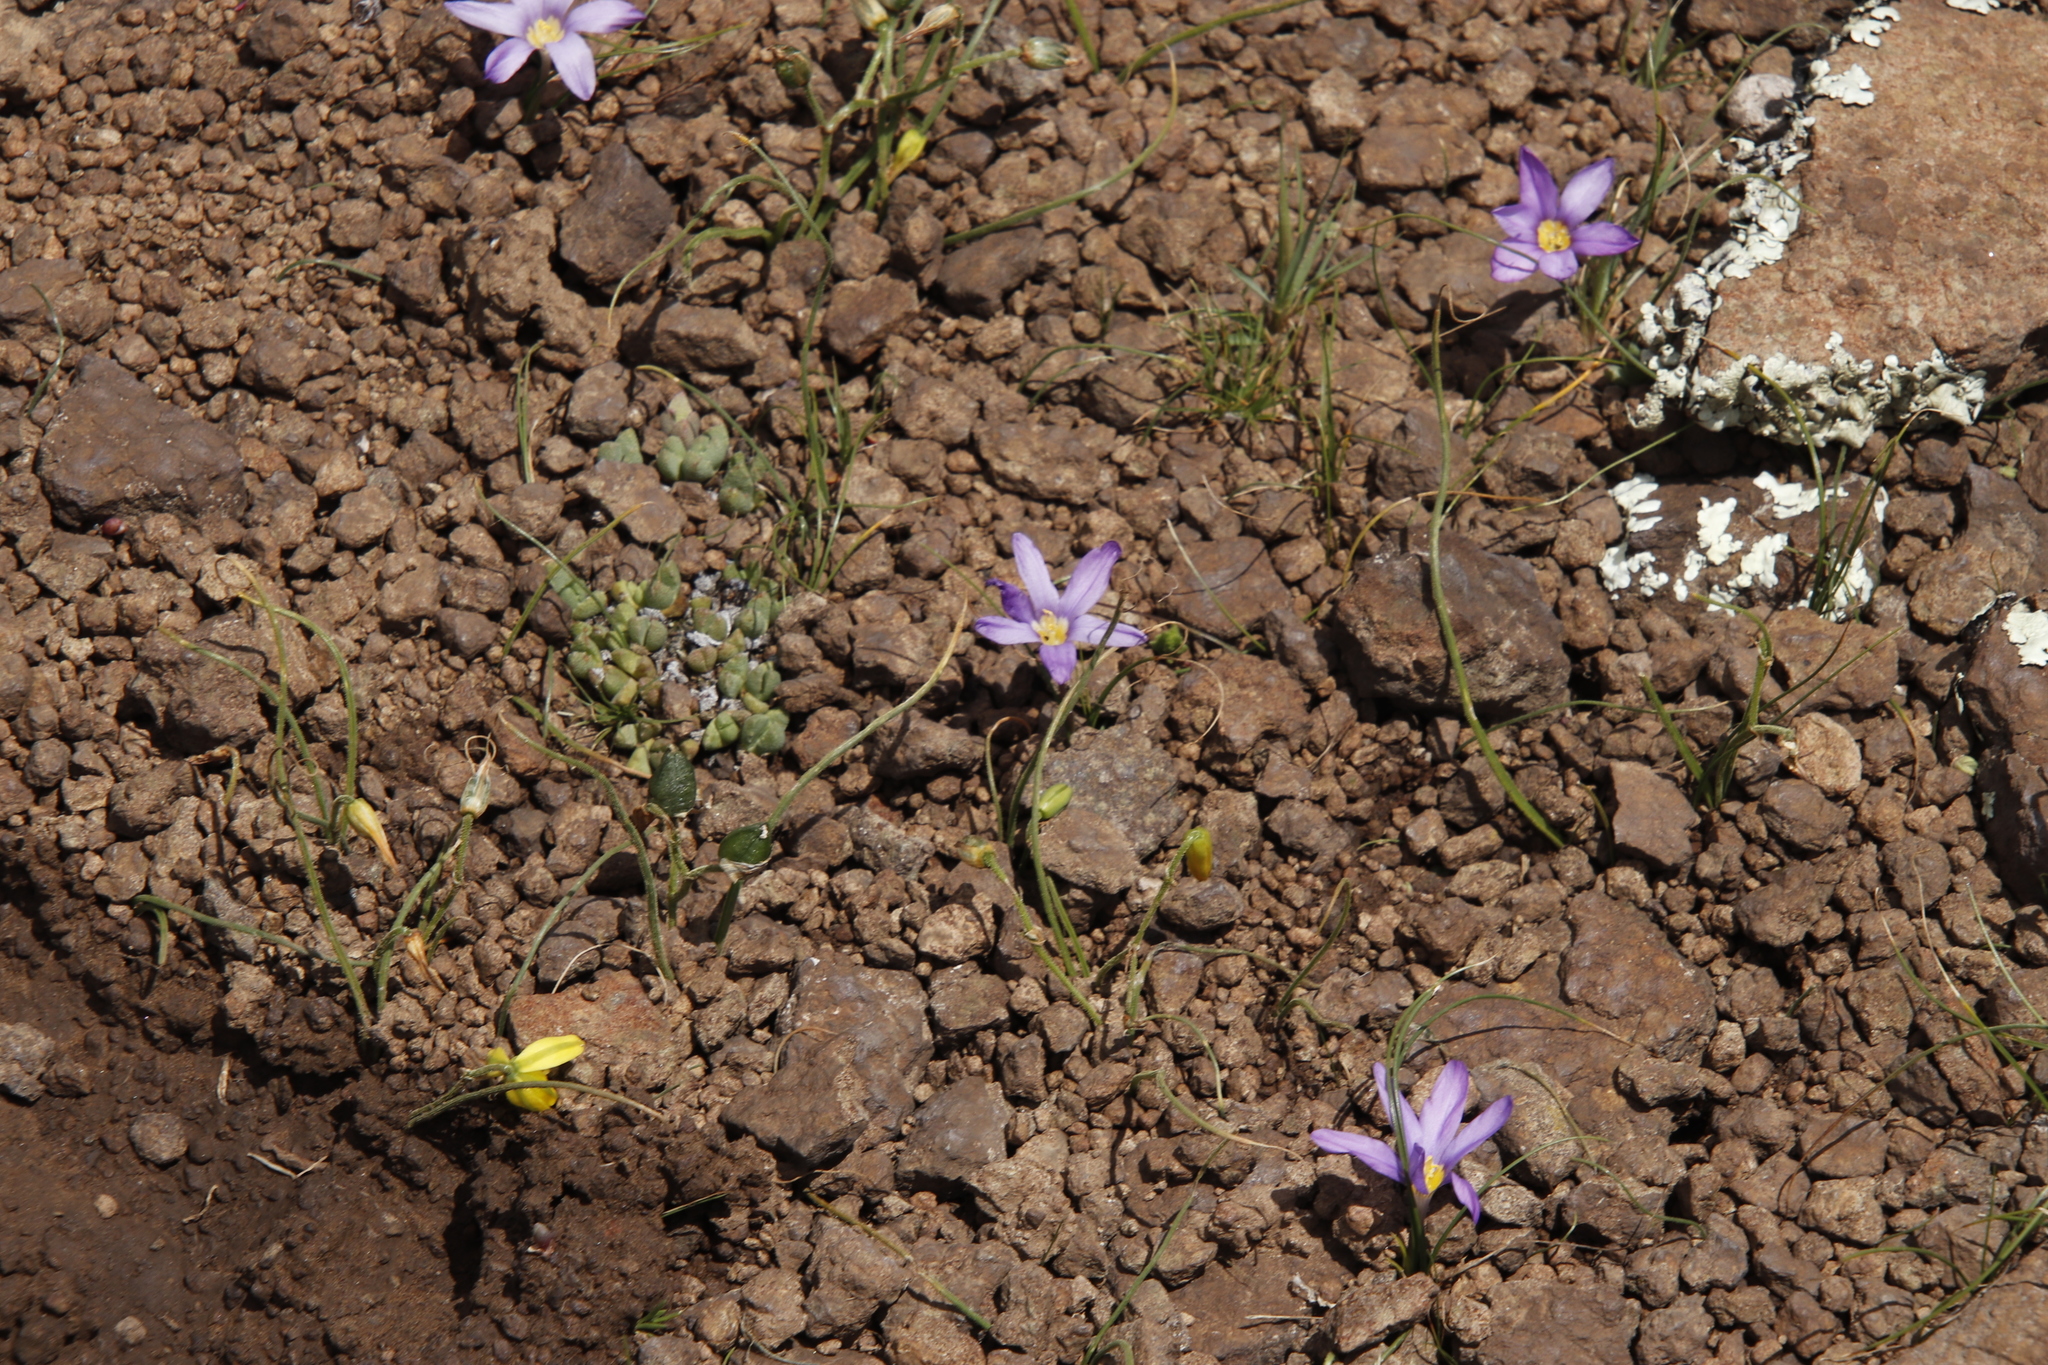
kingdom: Plantae
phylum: Tracheophyta
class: Liliopsida
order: Asparagales
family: Iridaceae
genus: Syringodea
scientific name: Syringodea bifucata
